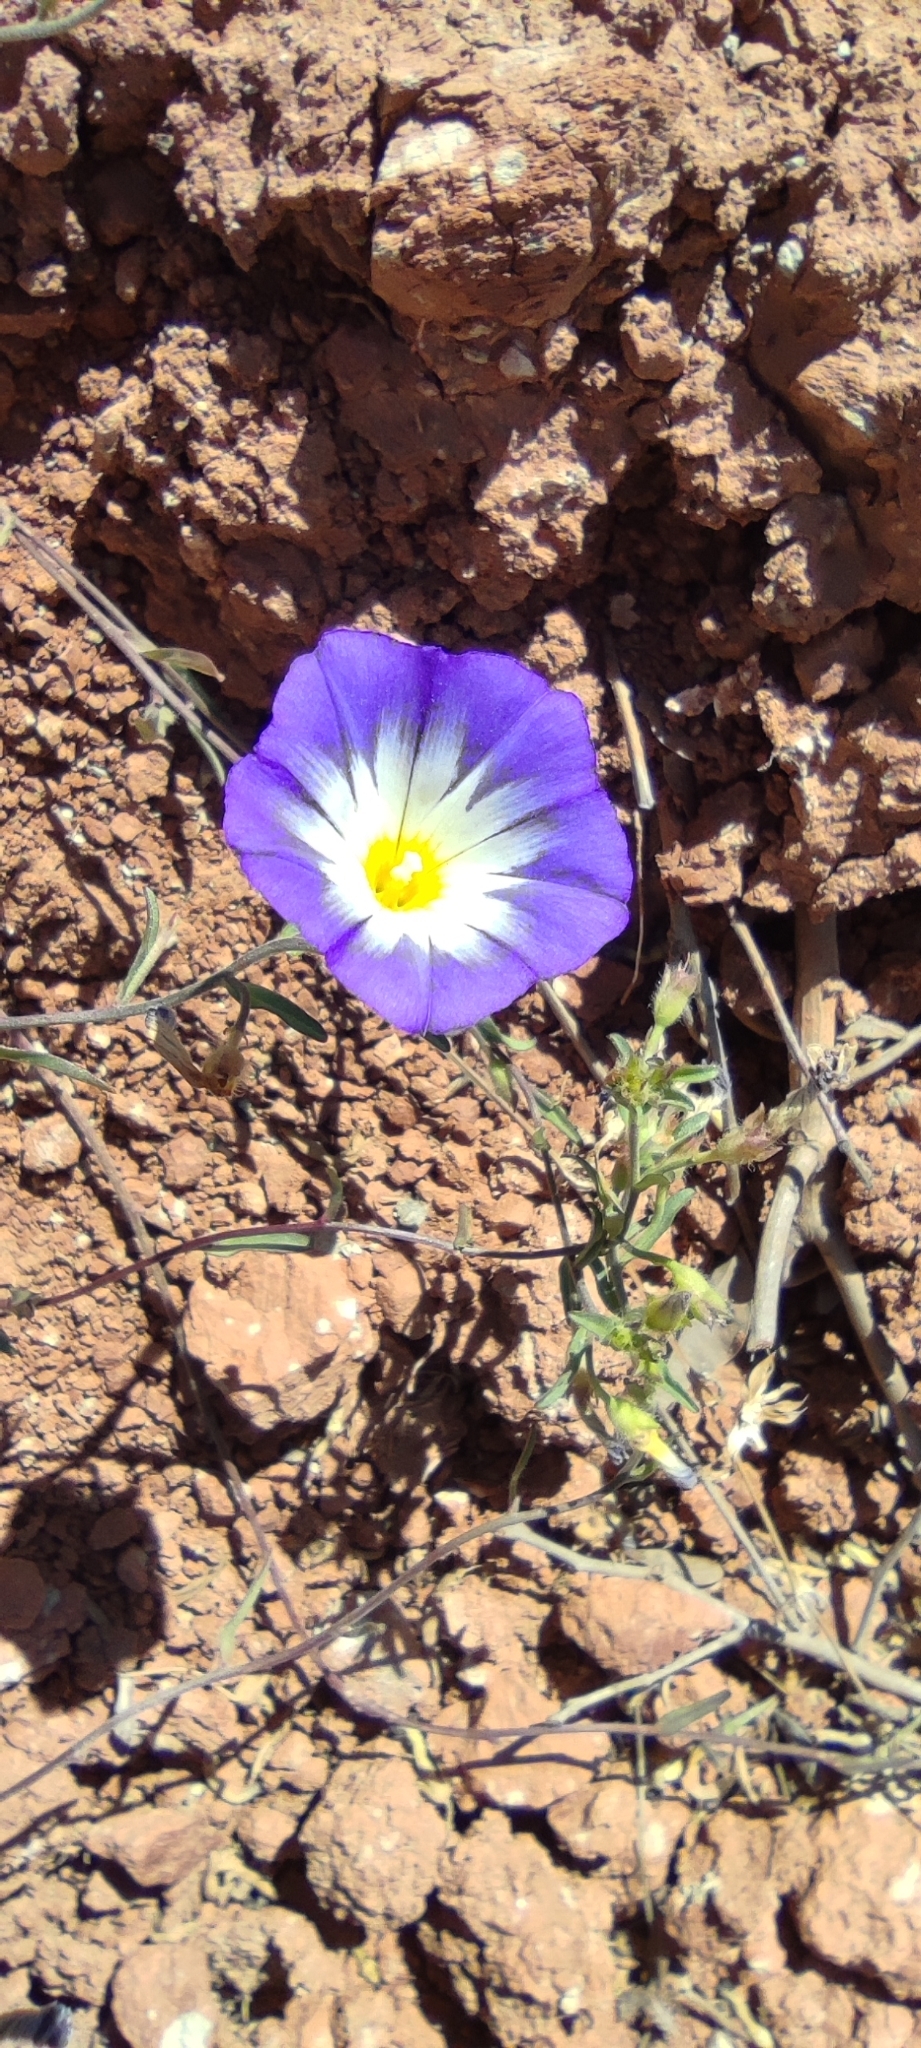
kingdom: Plantae
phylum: Tracheophyta
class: Magnoliopsida
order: Solanales
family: Convolvulaceae
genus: Convolvulus
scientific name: Convolvulus tricolor
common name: Dwarf morning-glory
